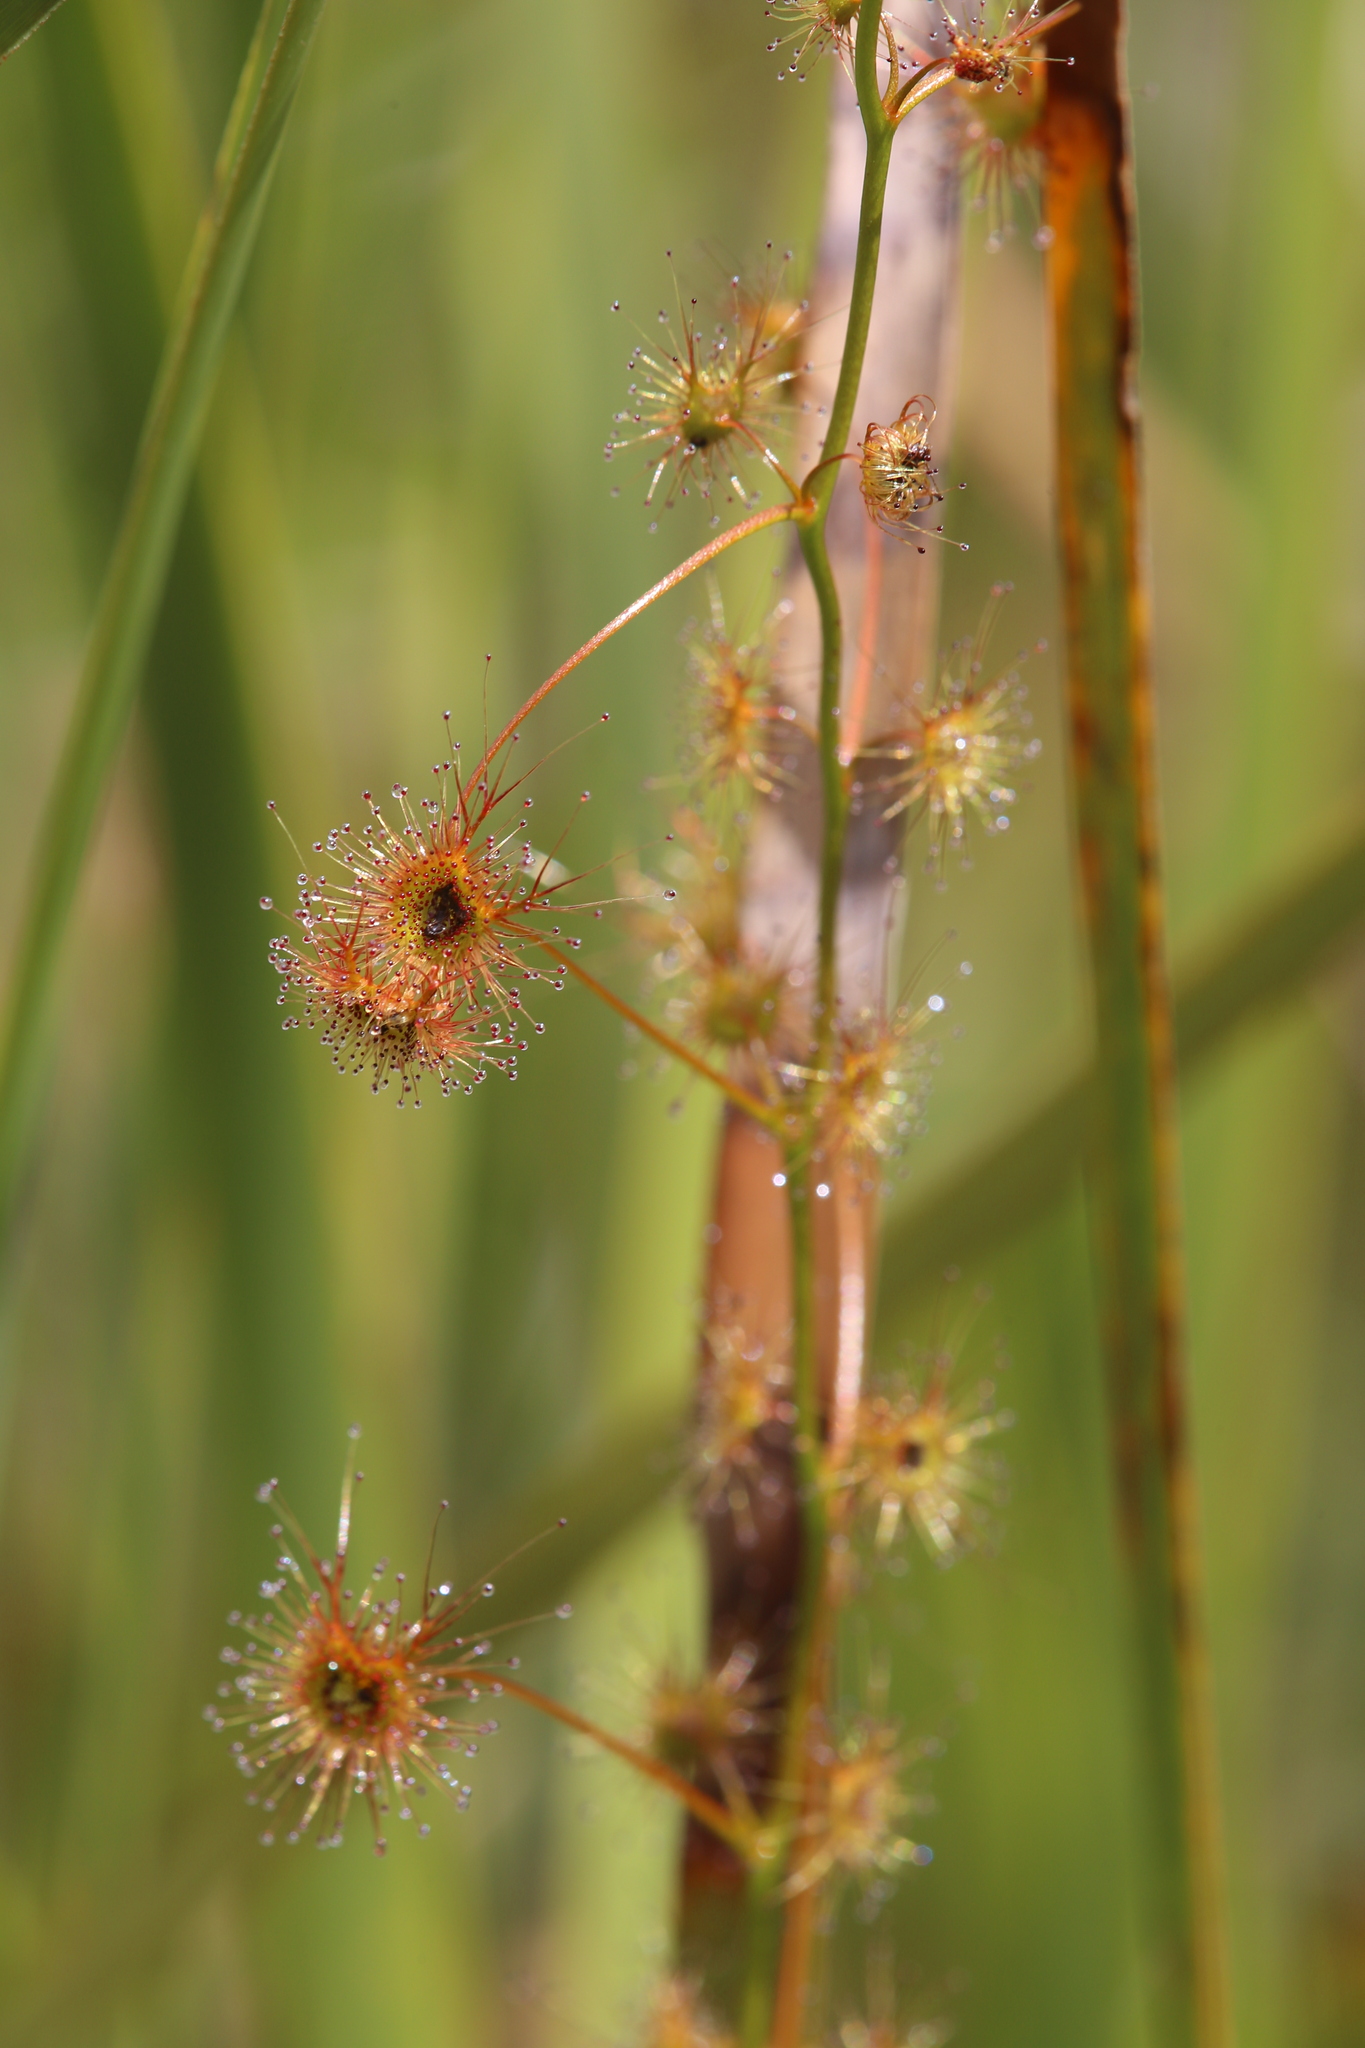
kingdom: Plantae
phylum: Tracheophyta
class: Magnoliopsida
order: Caryophyllales
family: Droseraceae
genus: Drosera
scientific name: Drosera sulphurea
